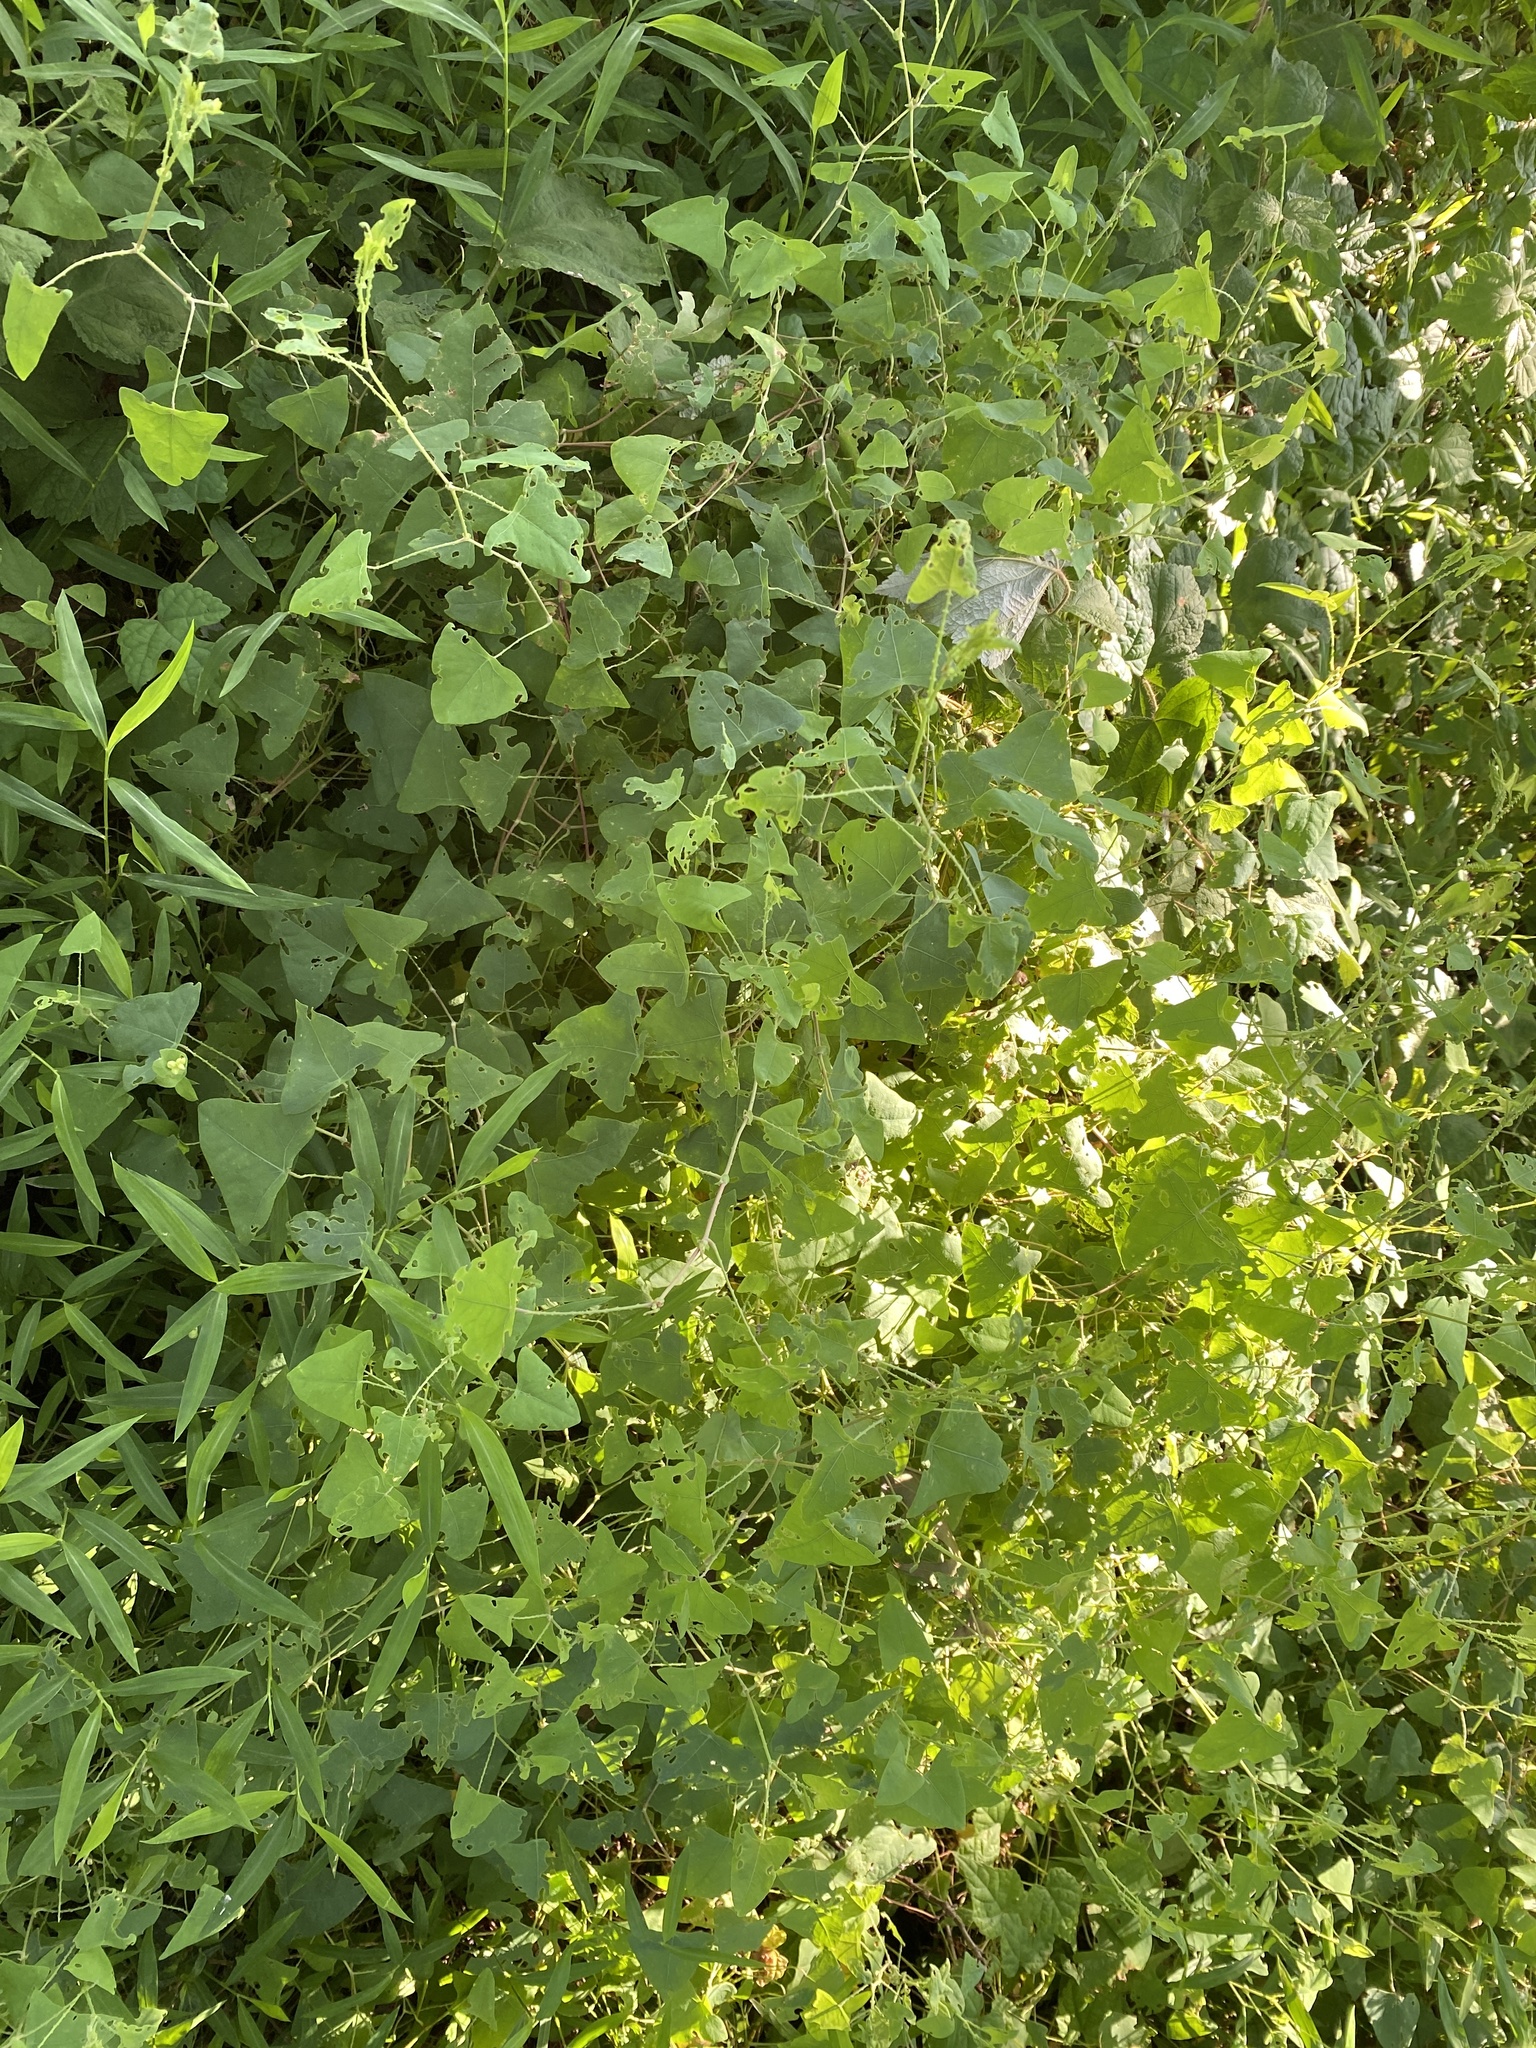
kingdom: Plantae
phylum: Tracheophyta
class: Magnoliopsida
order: Caryophyllales
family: Polygonaceae
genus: Persicaria
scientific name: Persicaria perfoliata
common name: Asiatic tearthumb
